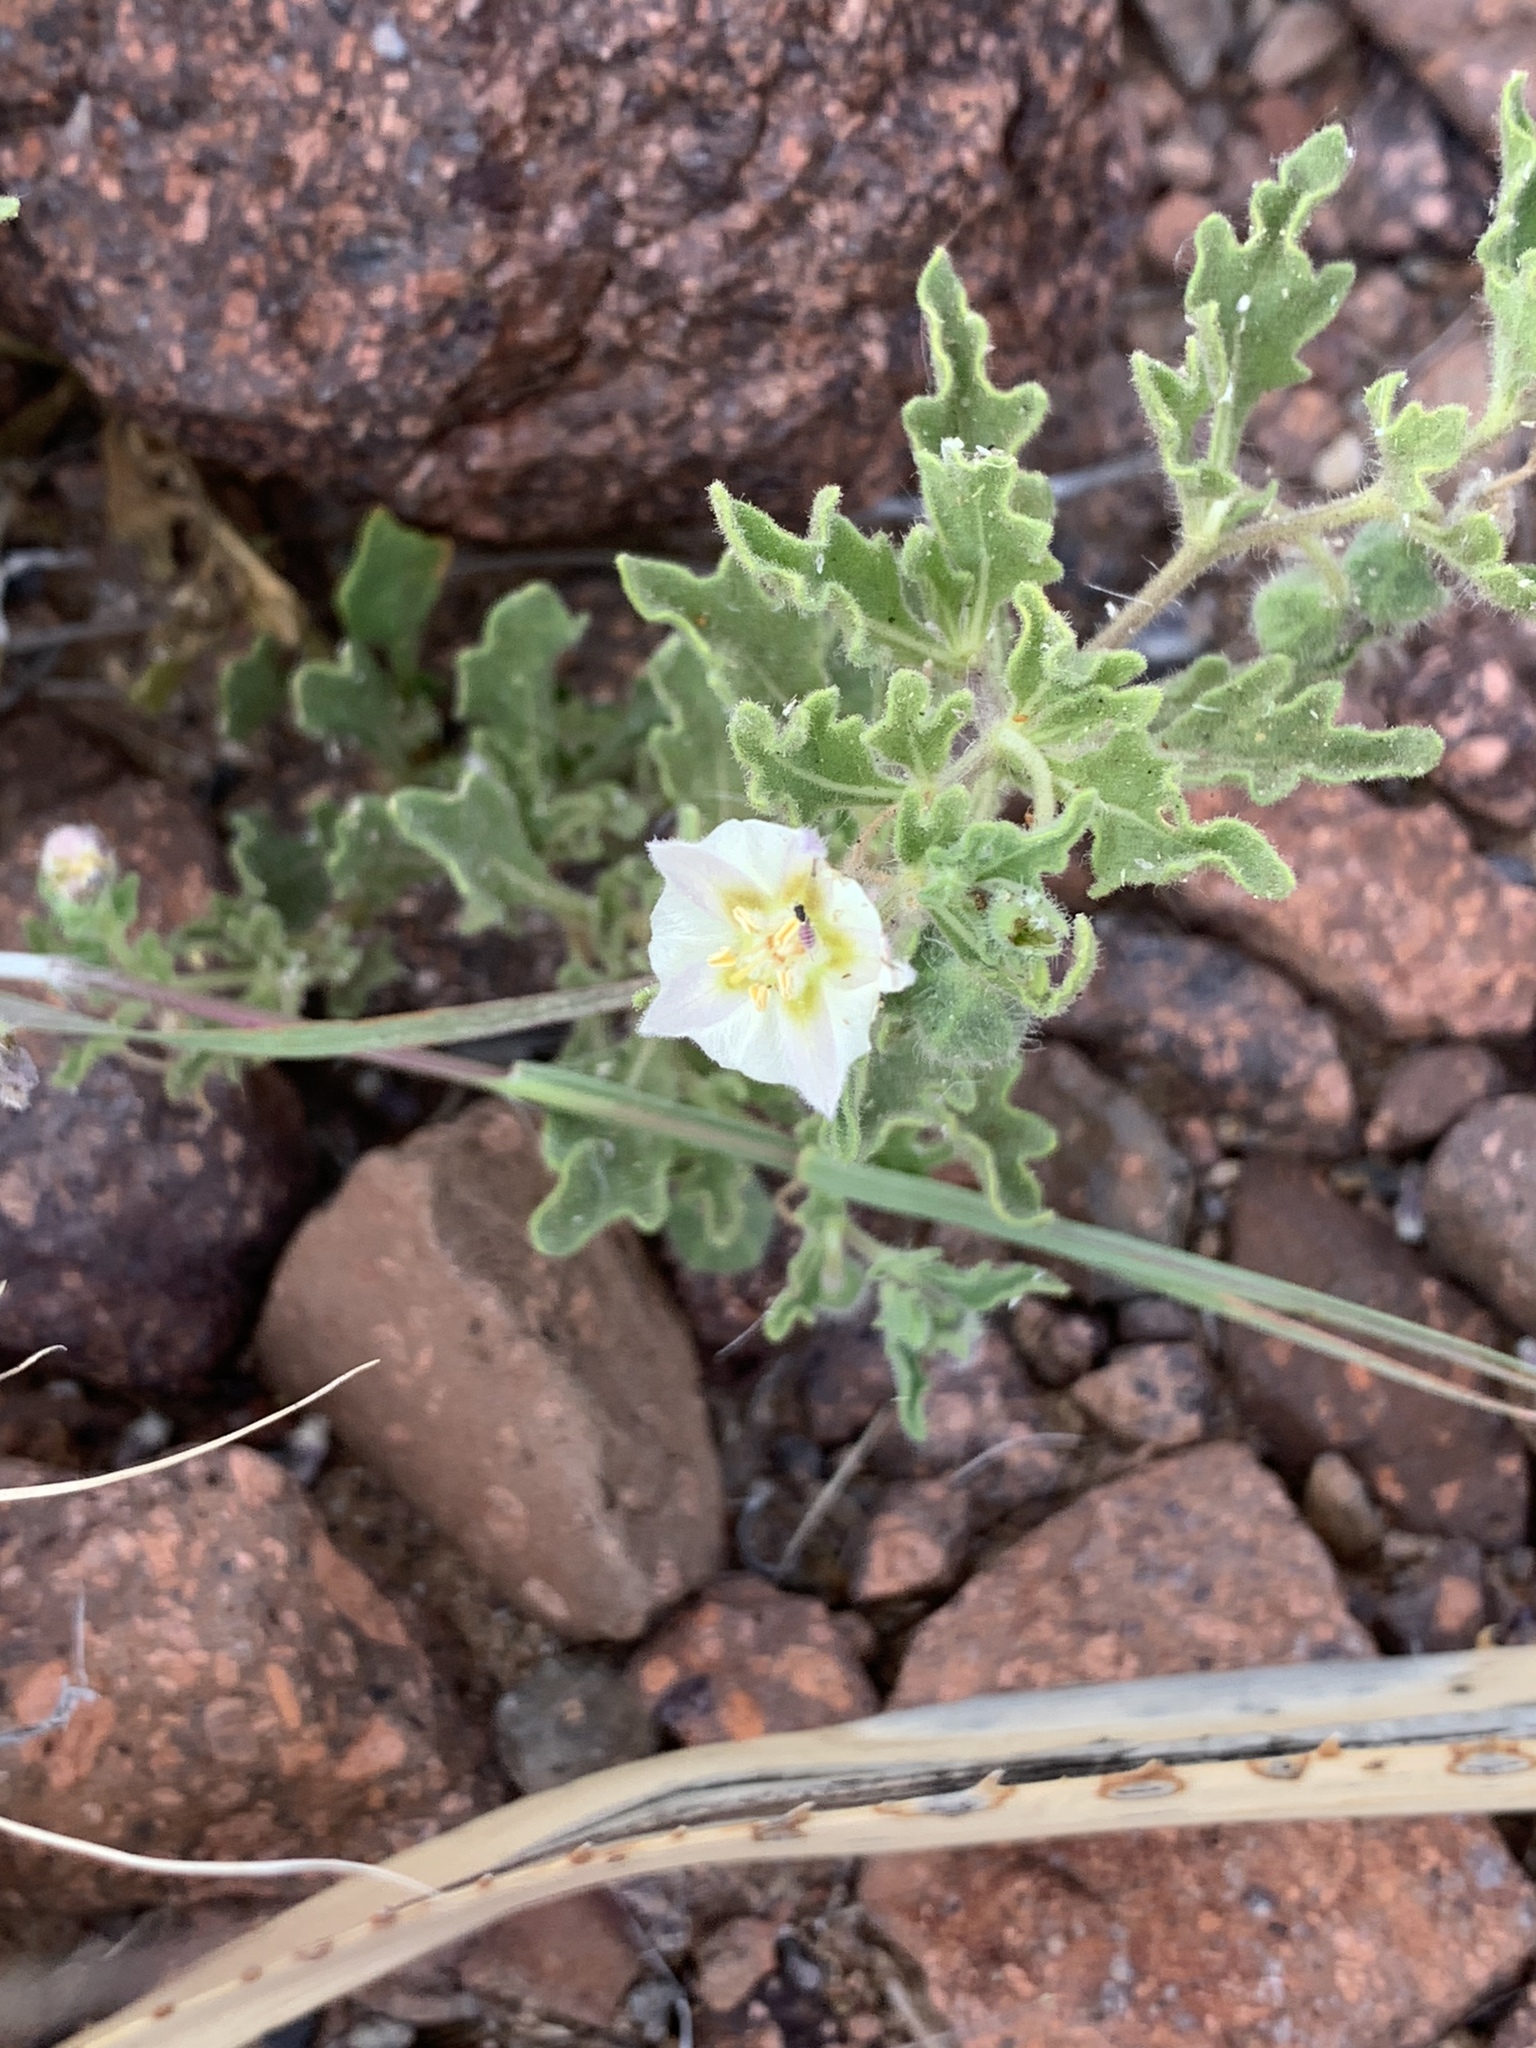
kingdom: Plantae
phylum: Tracheophyta
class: Magnoliopsida
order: Solanales
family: Solanaceae
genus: Chamaesaracha
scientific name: Chamaesaracha sordida
